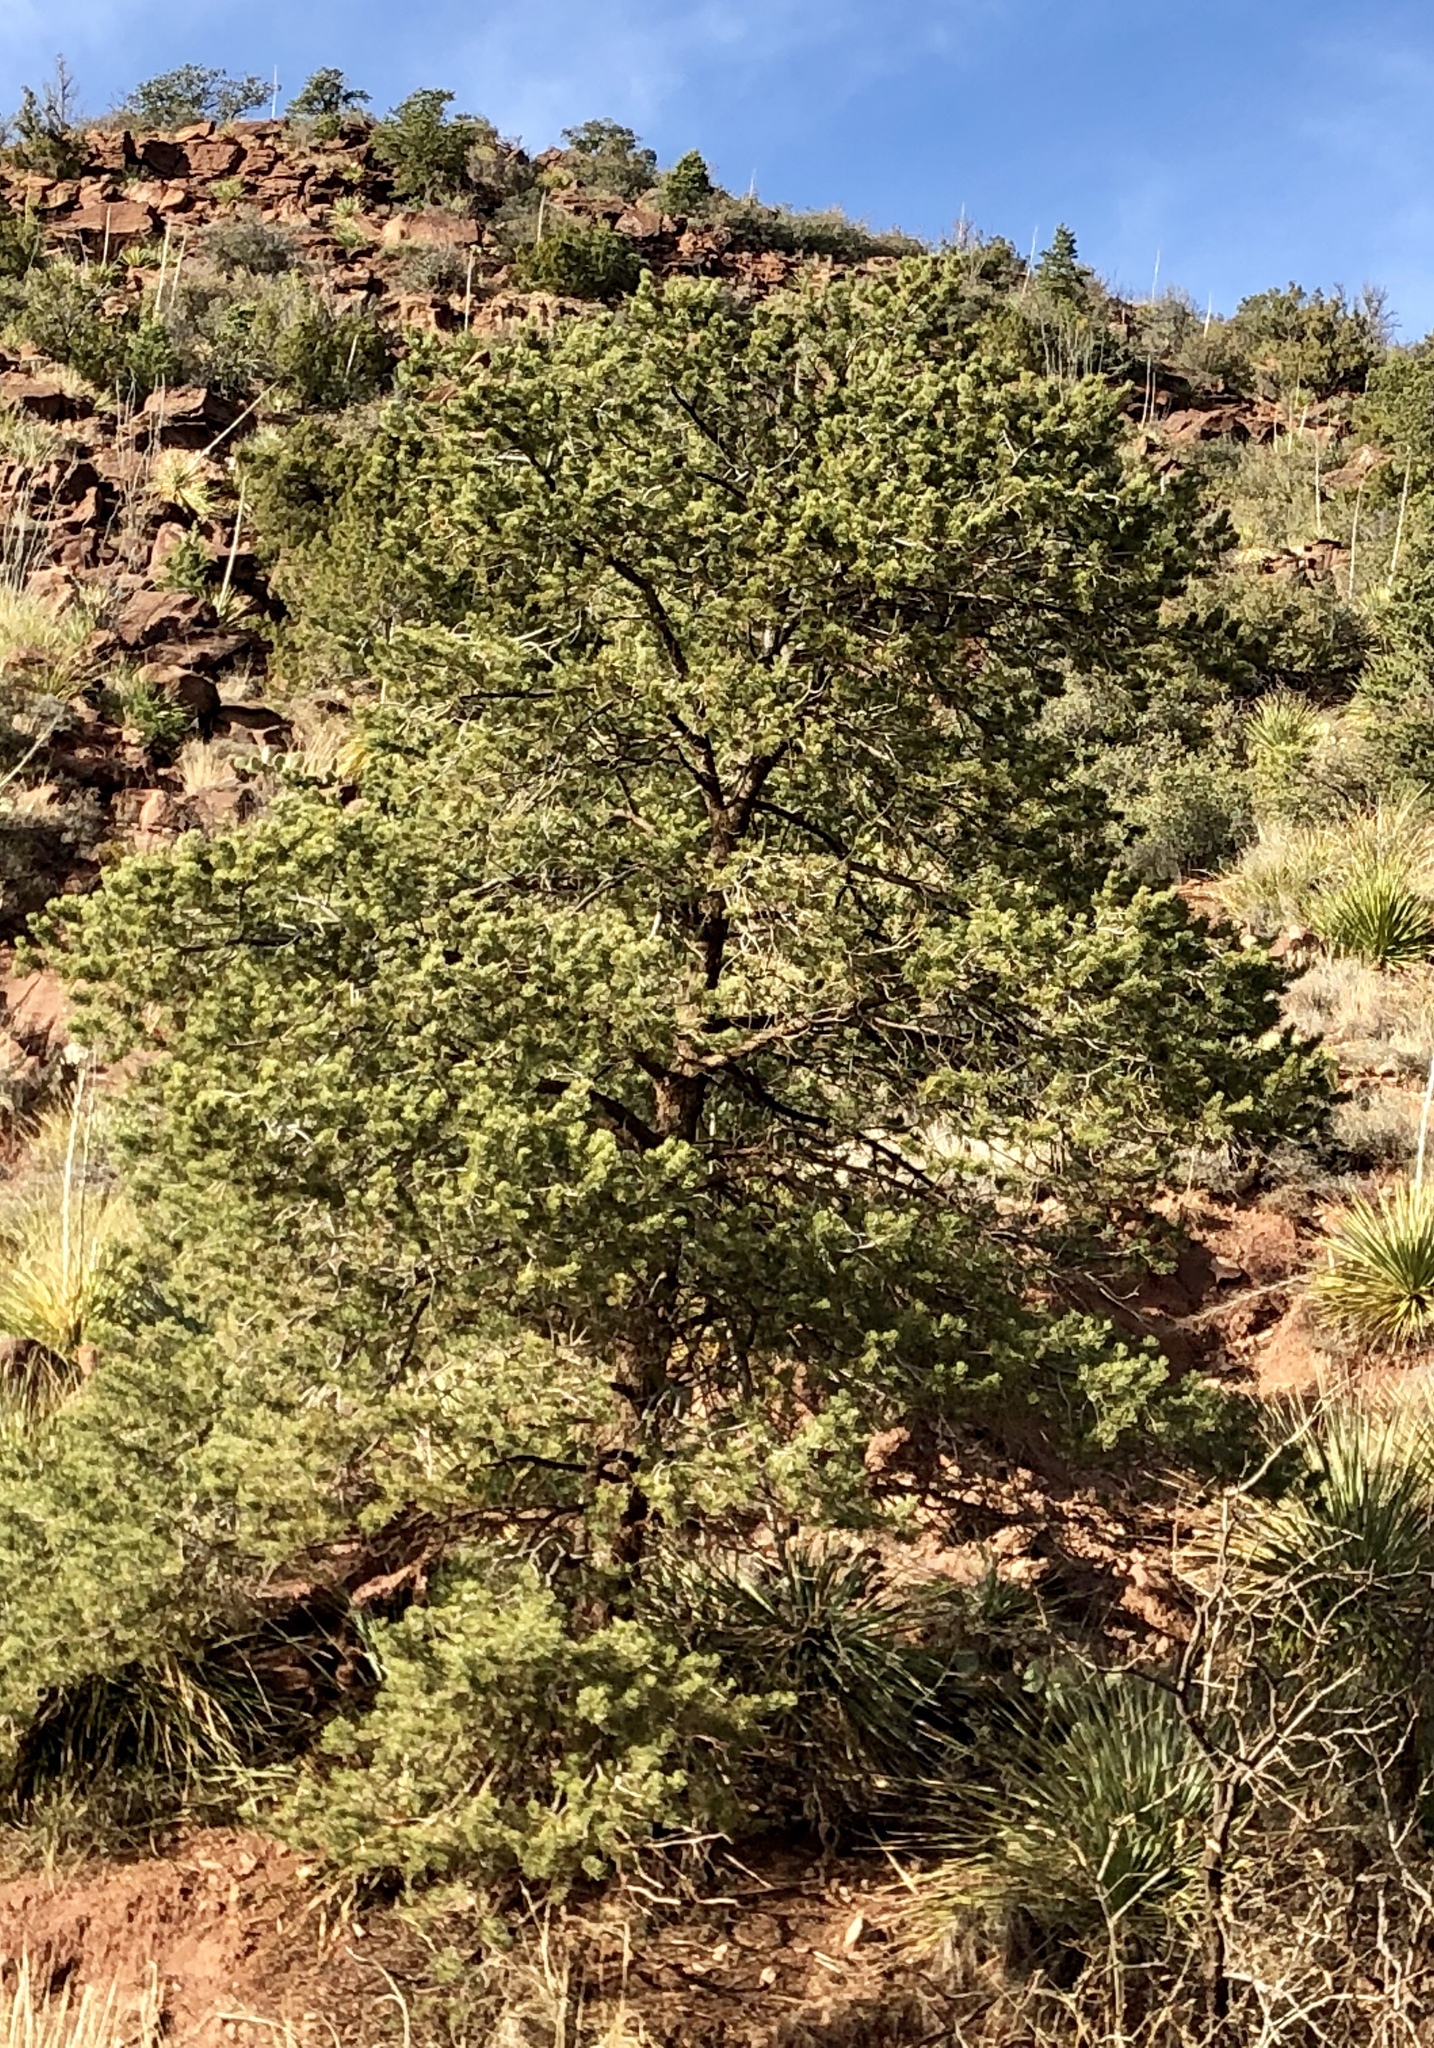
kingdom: Plantae
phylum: Tracheophyta
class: Pinopsida
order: Pinales
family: Pinaceae
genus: Pinus
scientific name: Pinus edulis
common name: Colorado pinyon
